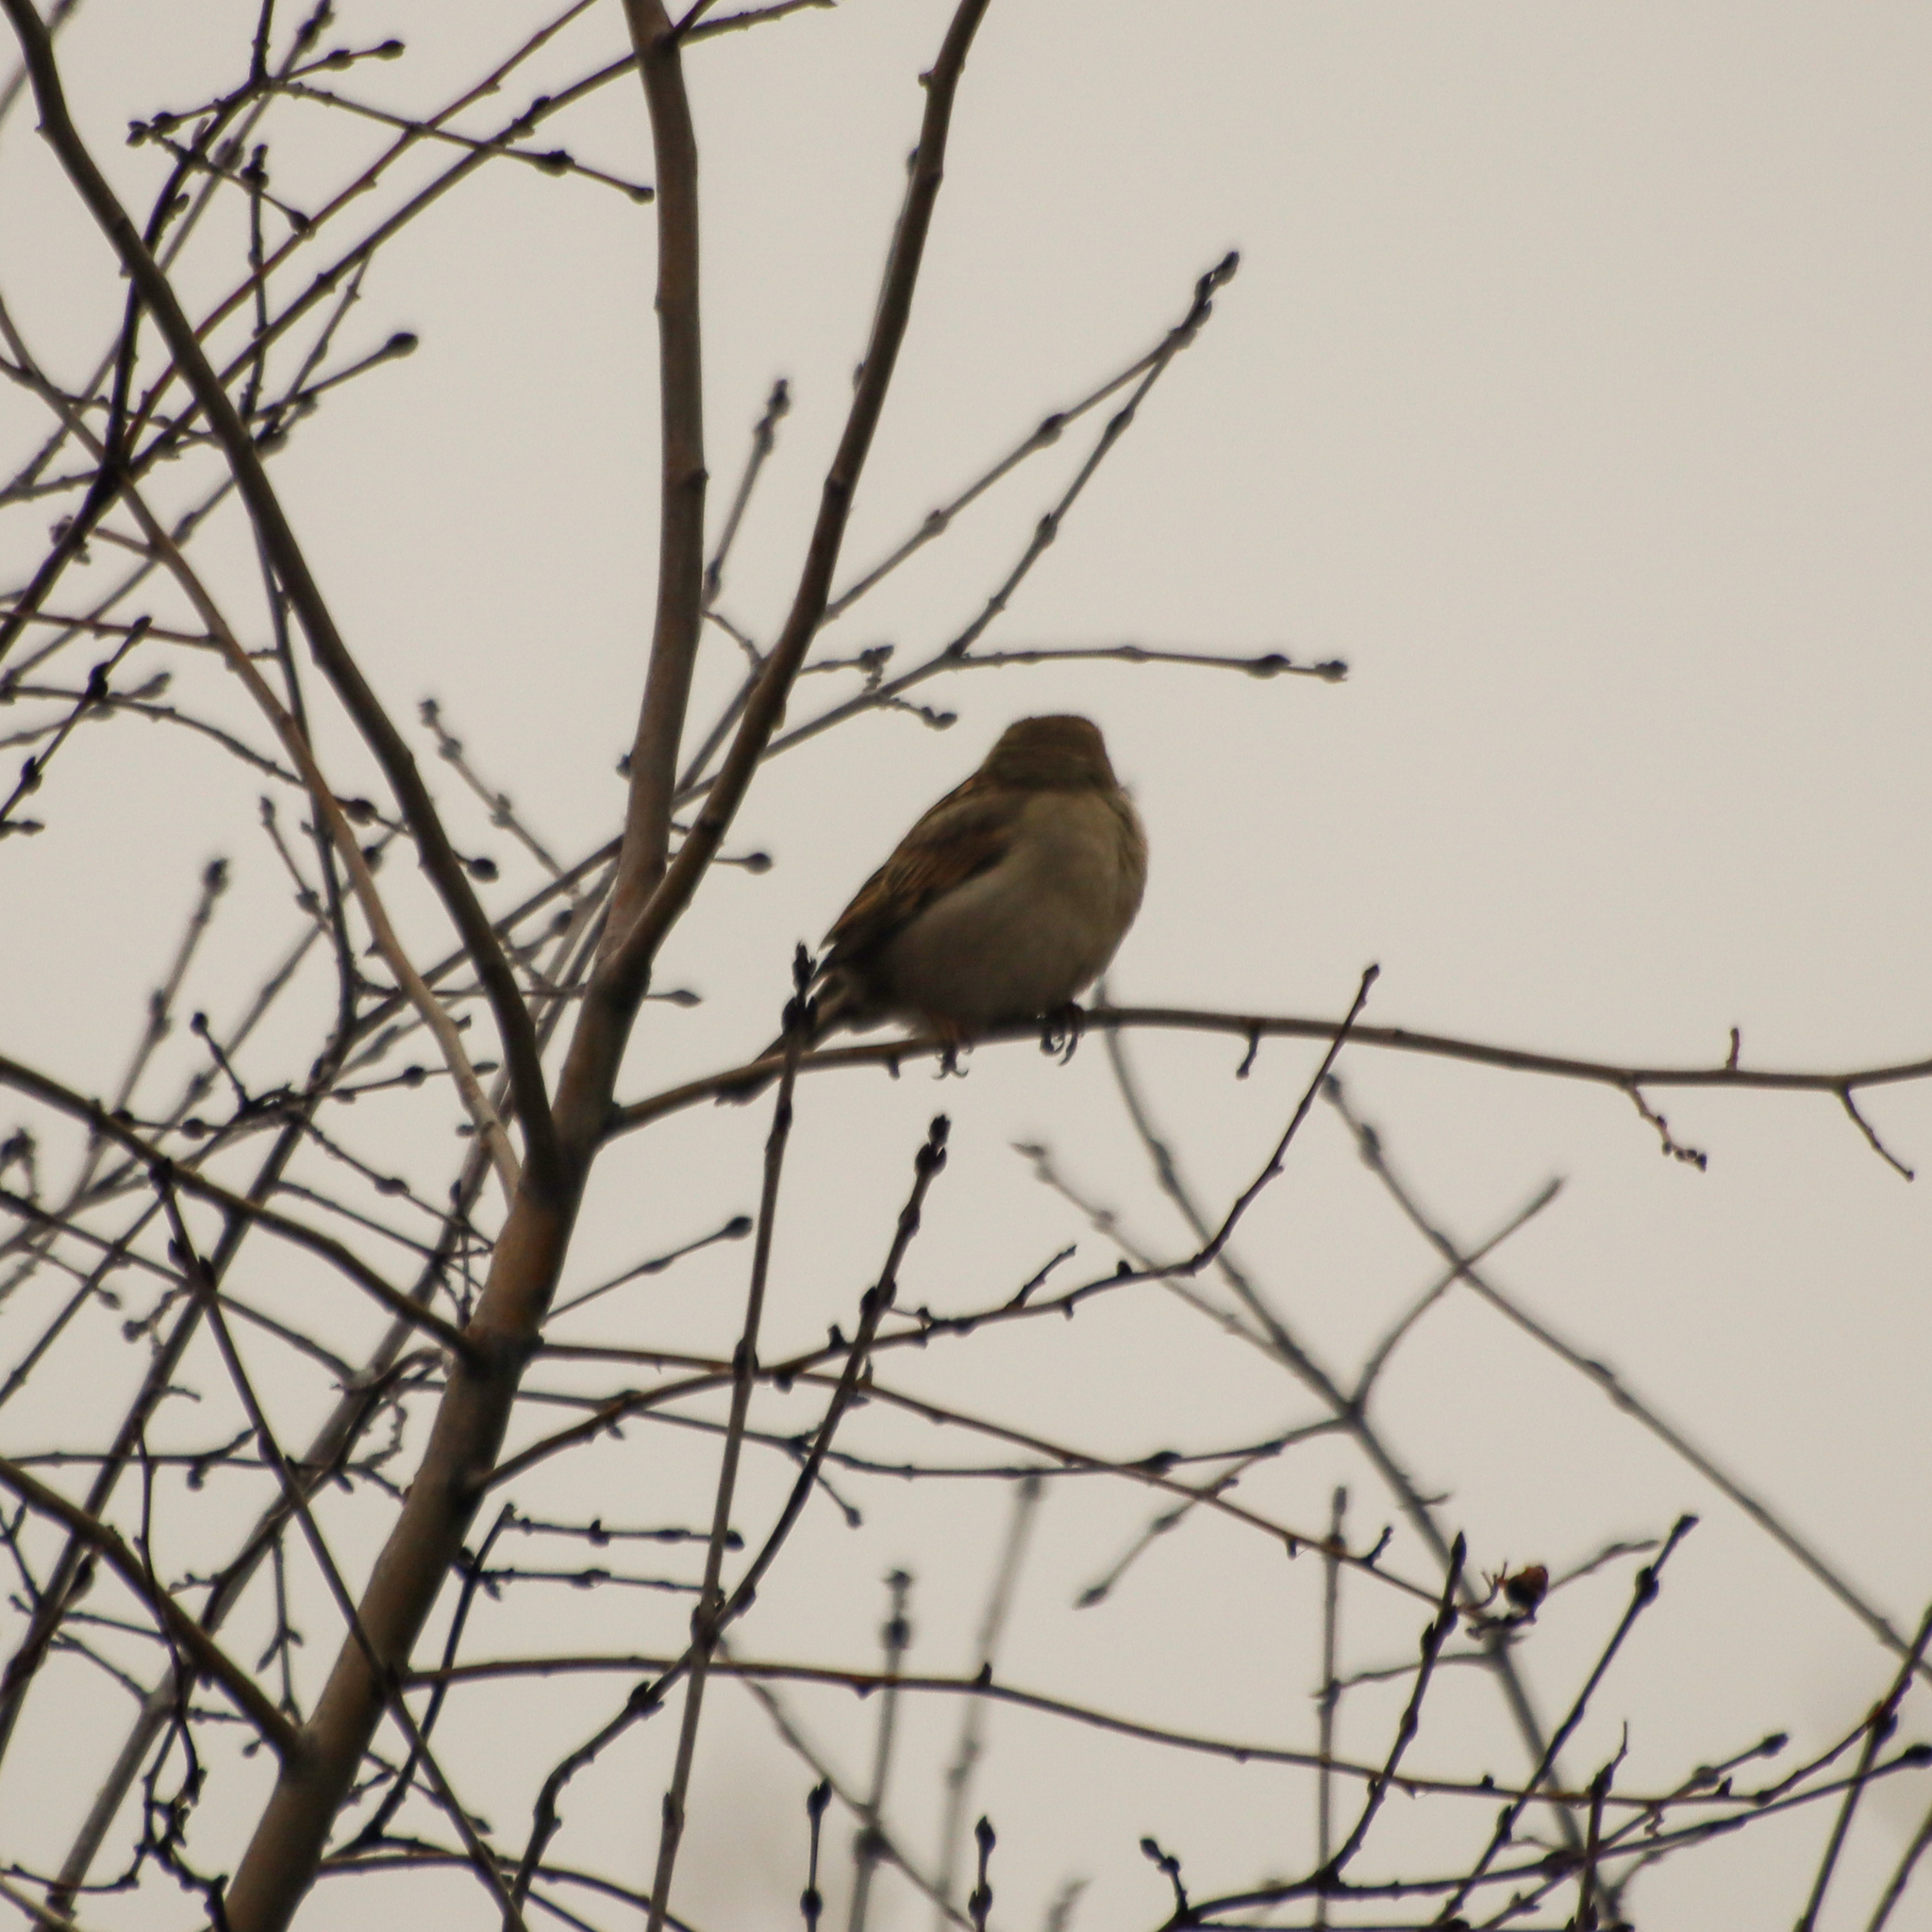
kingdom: Animalia
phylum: Chordata
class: Aves
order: Passeriformes
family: Passeridae
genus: Passer
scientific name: Passer domesticus
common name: House sparrow
